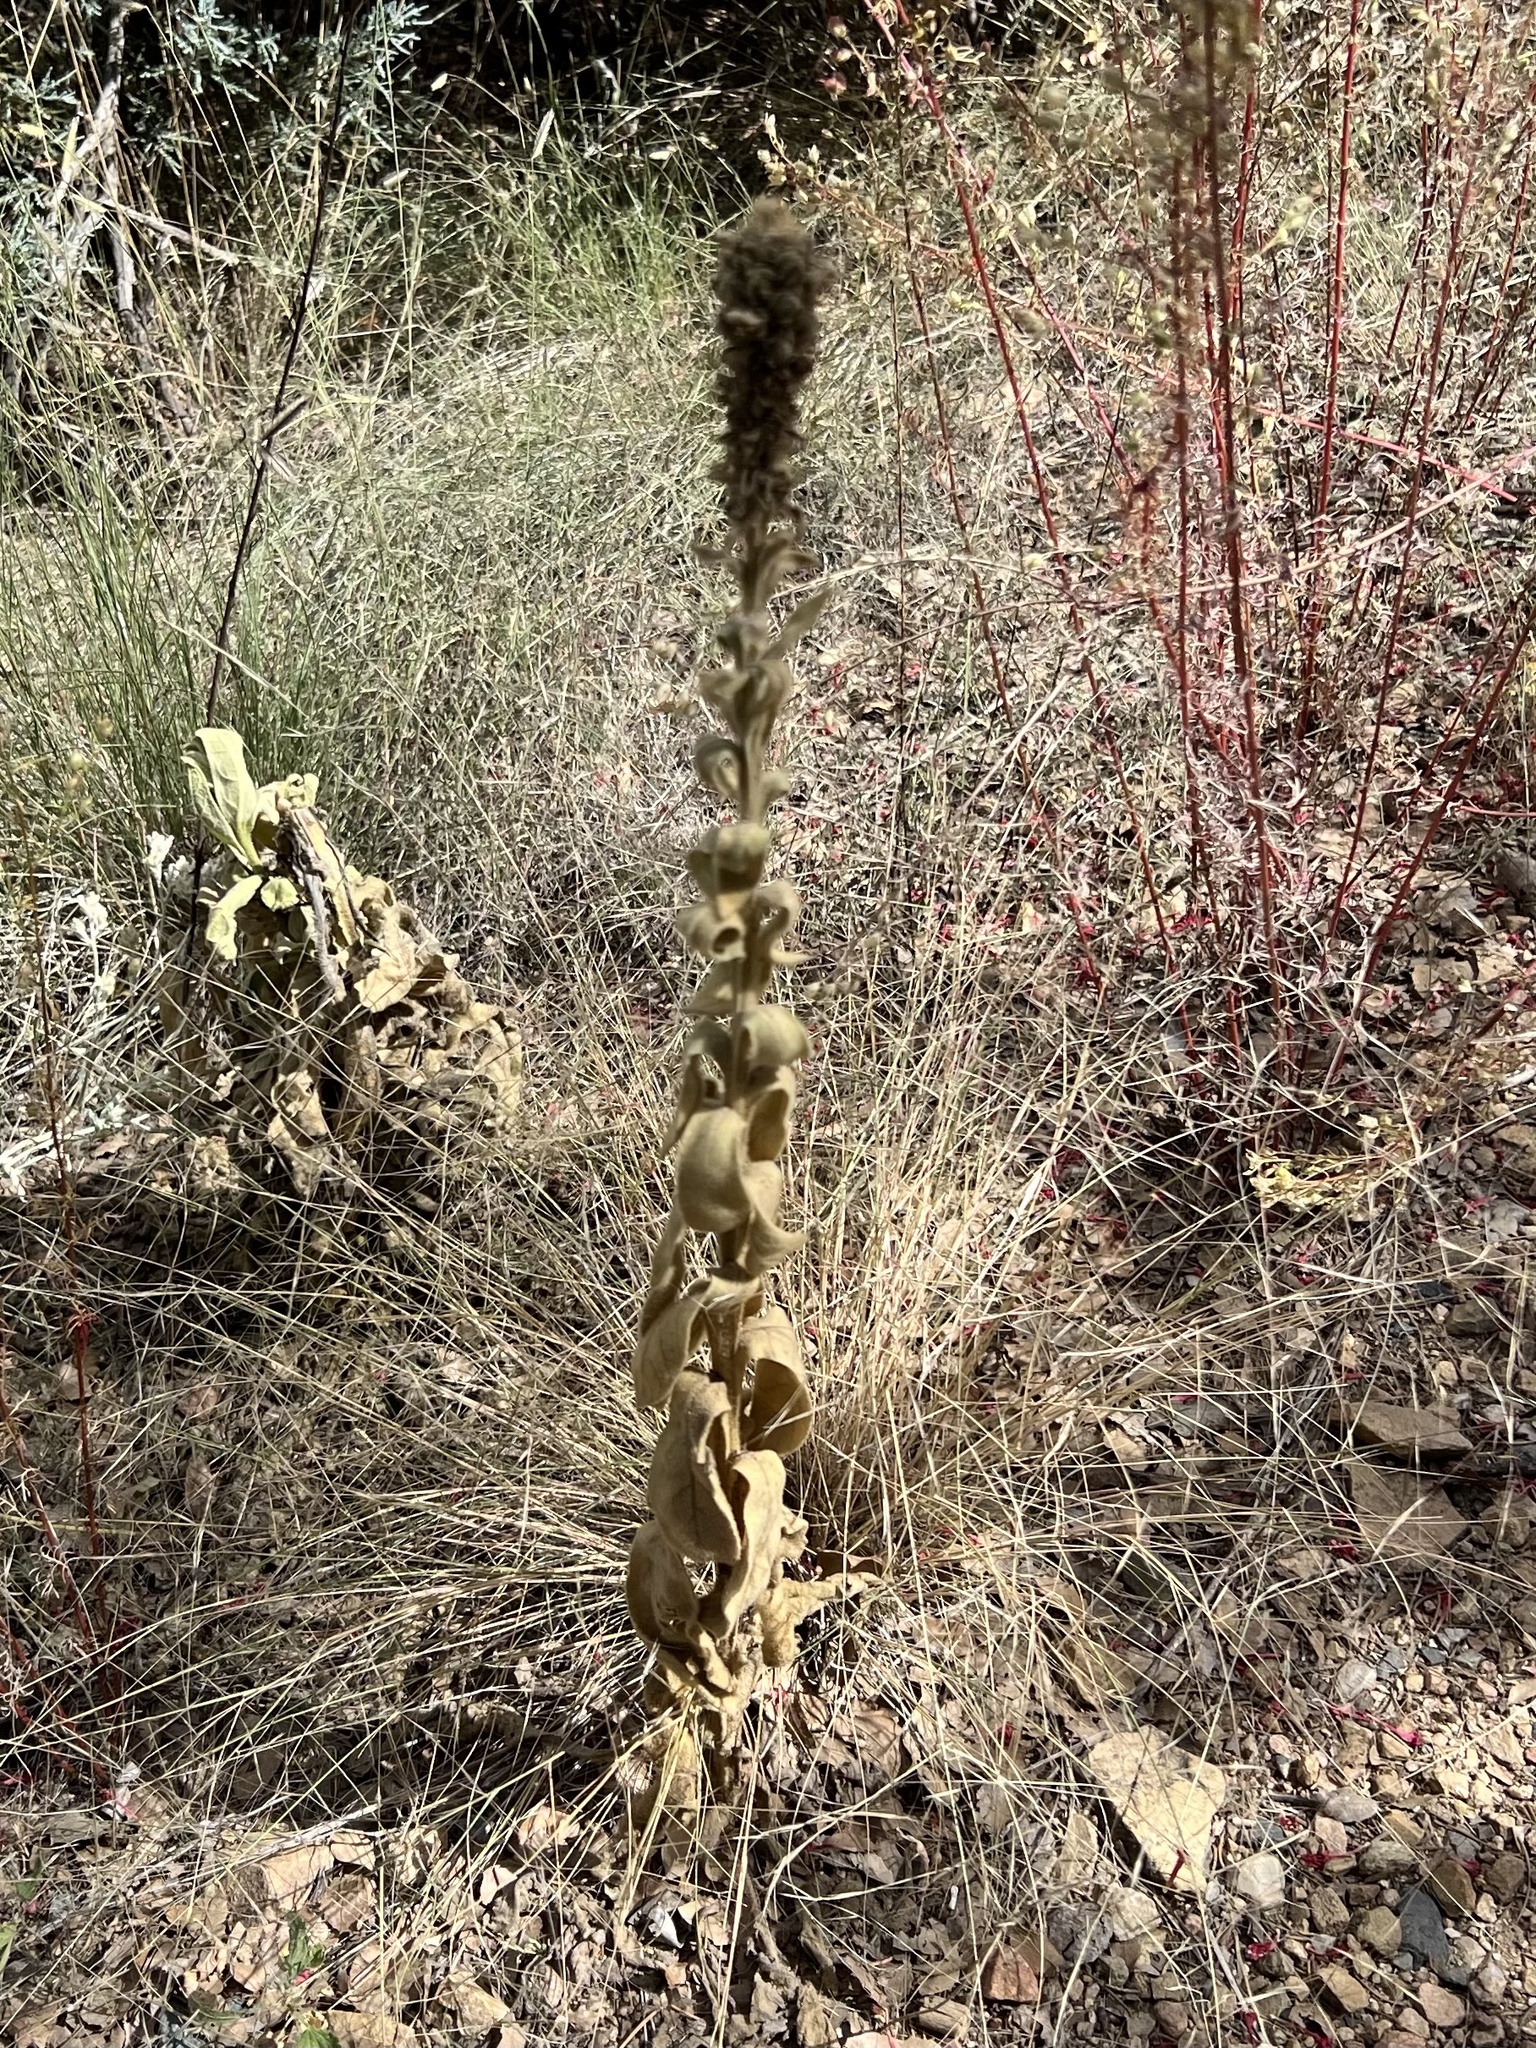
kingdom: Plantae
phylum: Tracheophyta
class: Magnoliopsida
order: Lamiales
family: Scrophulariaceae
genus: Verbascum
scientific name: Verbascum thapsus
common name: Common mullein
